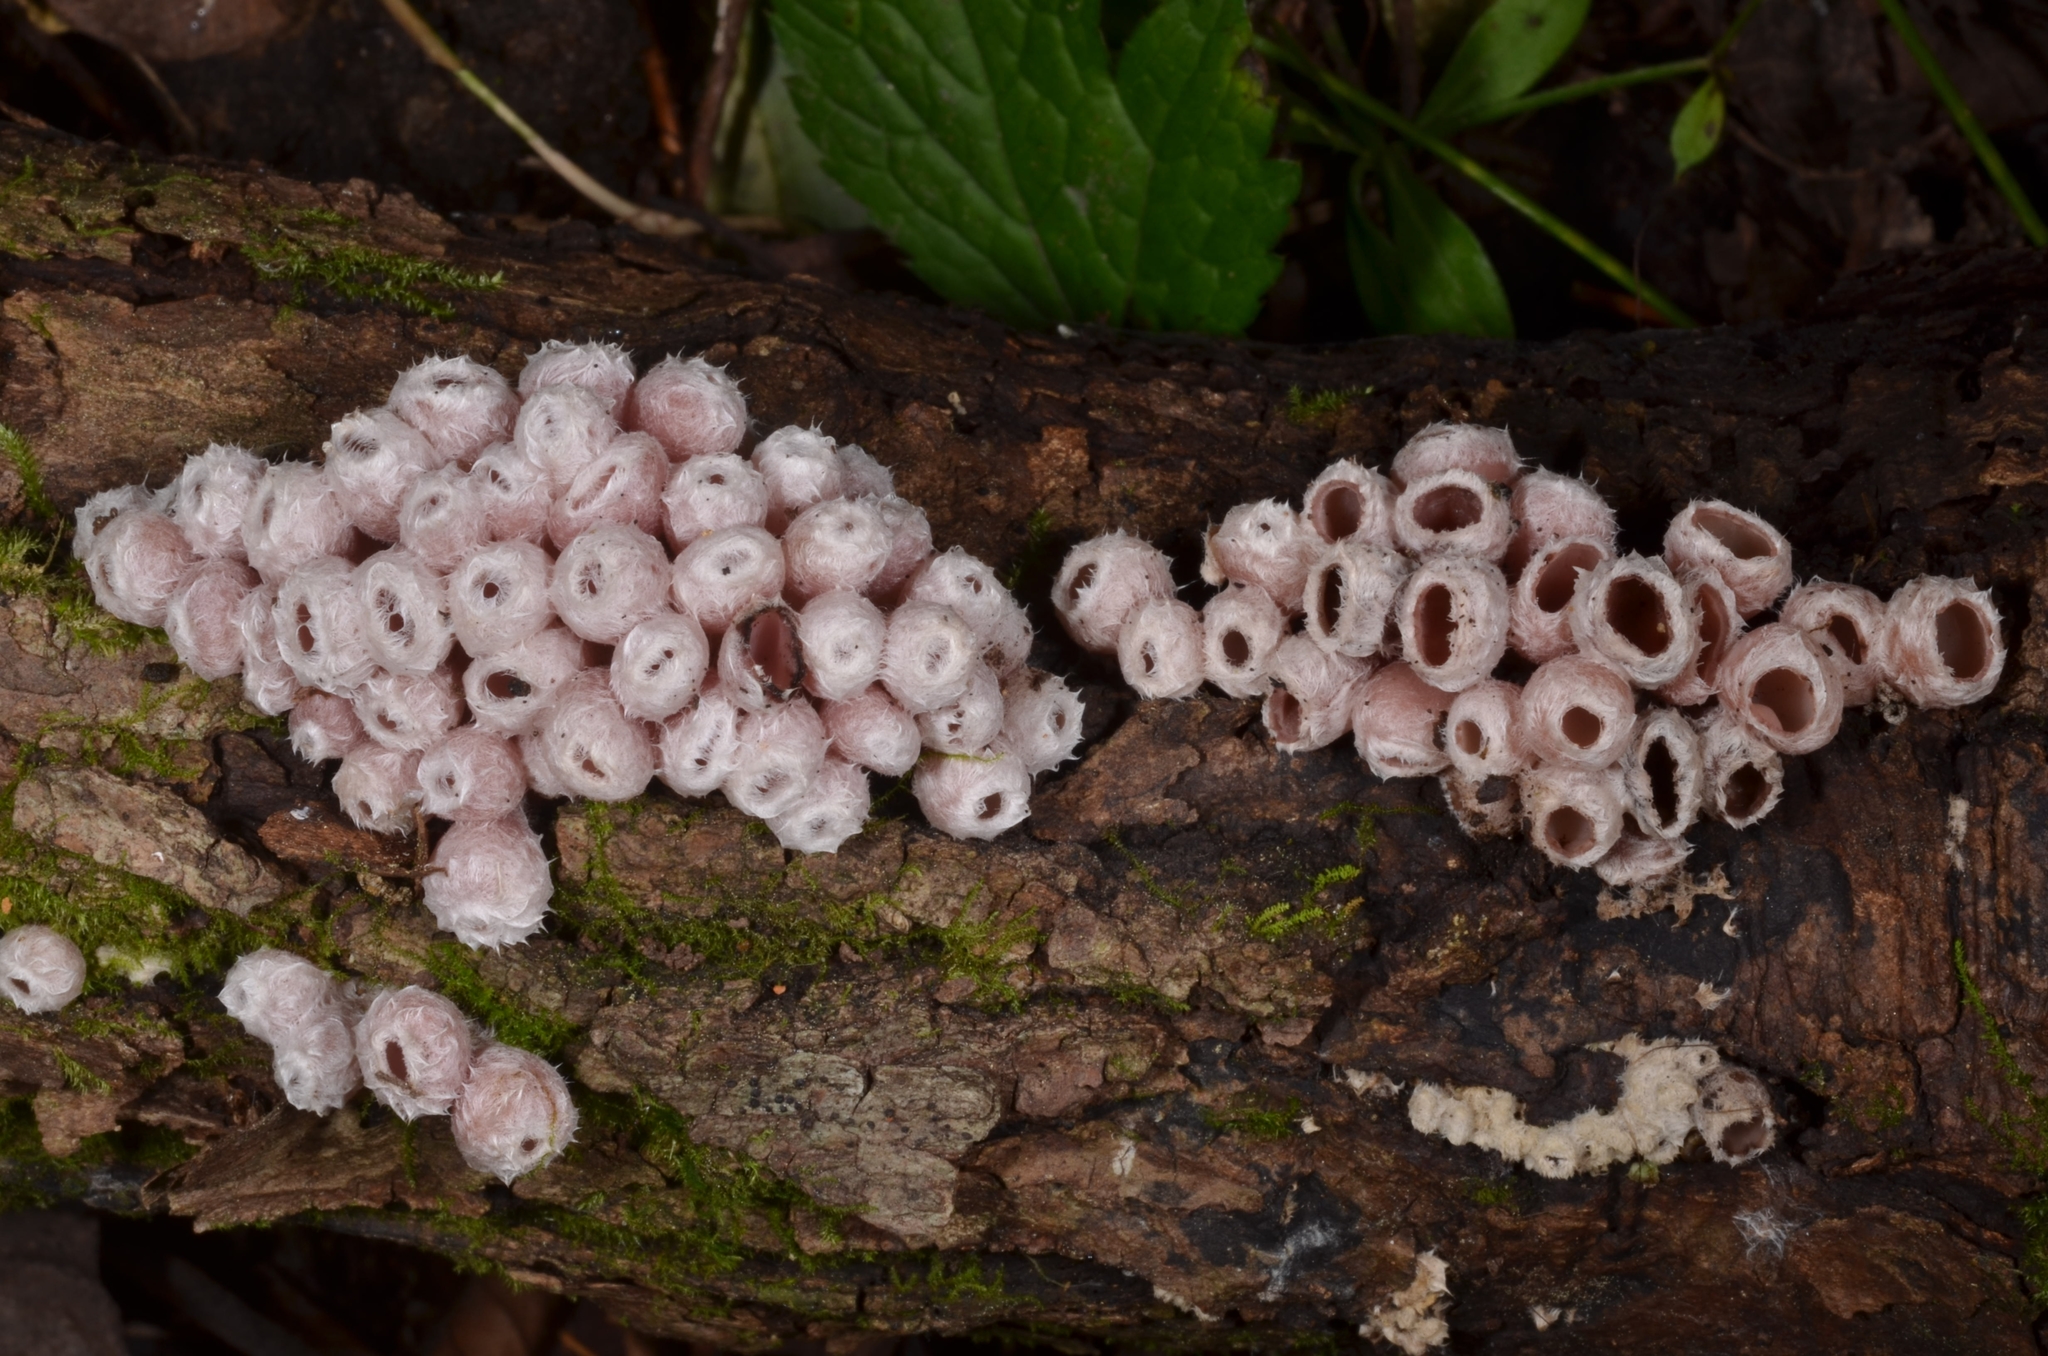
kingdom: Fungi
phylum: Ascomycota
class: Pezizomycetes
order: Pezizales
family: Sarcoscyphaceae
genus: Microstoma
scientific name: Microstoma aggregatum
